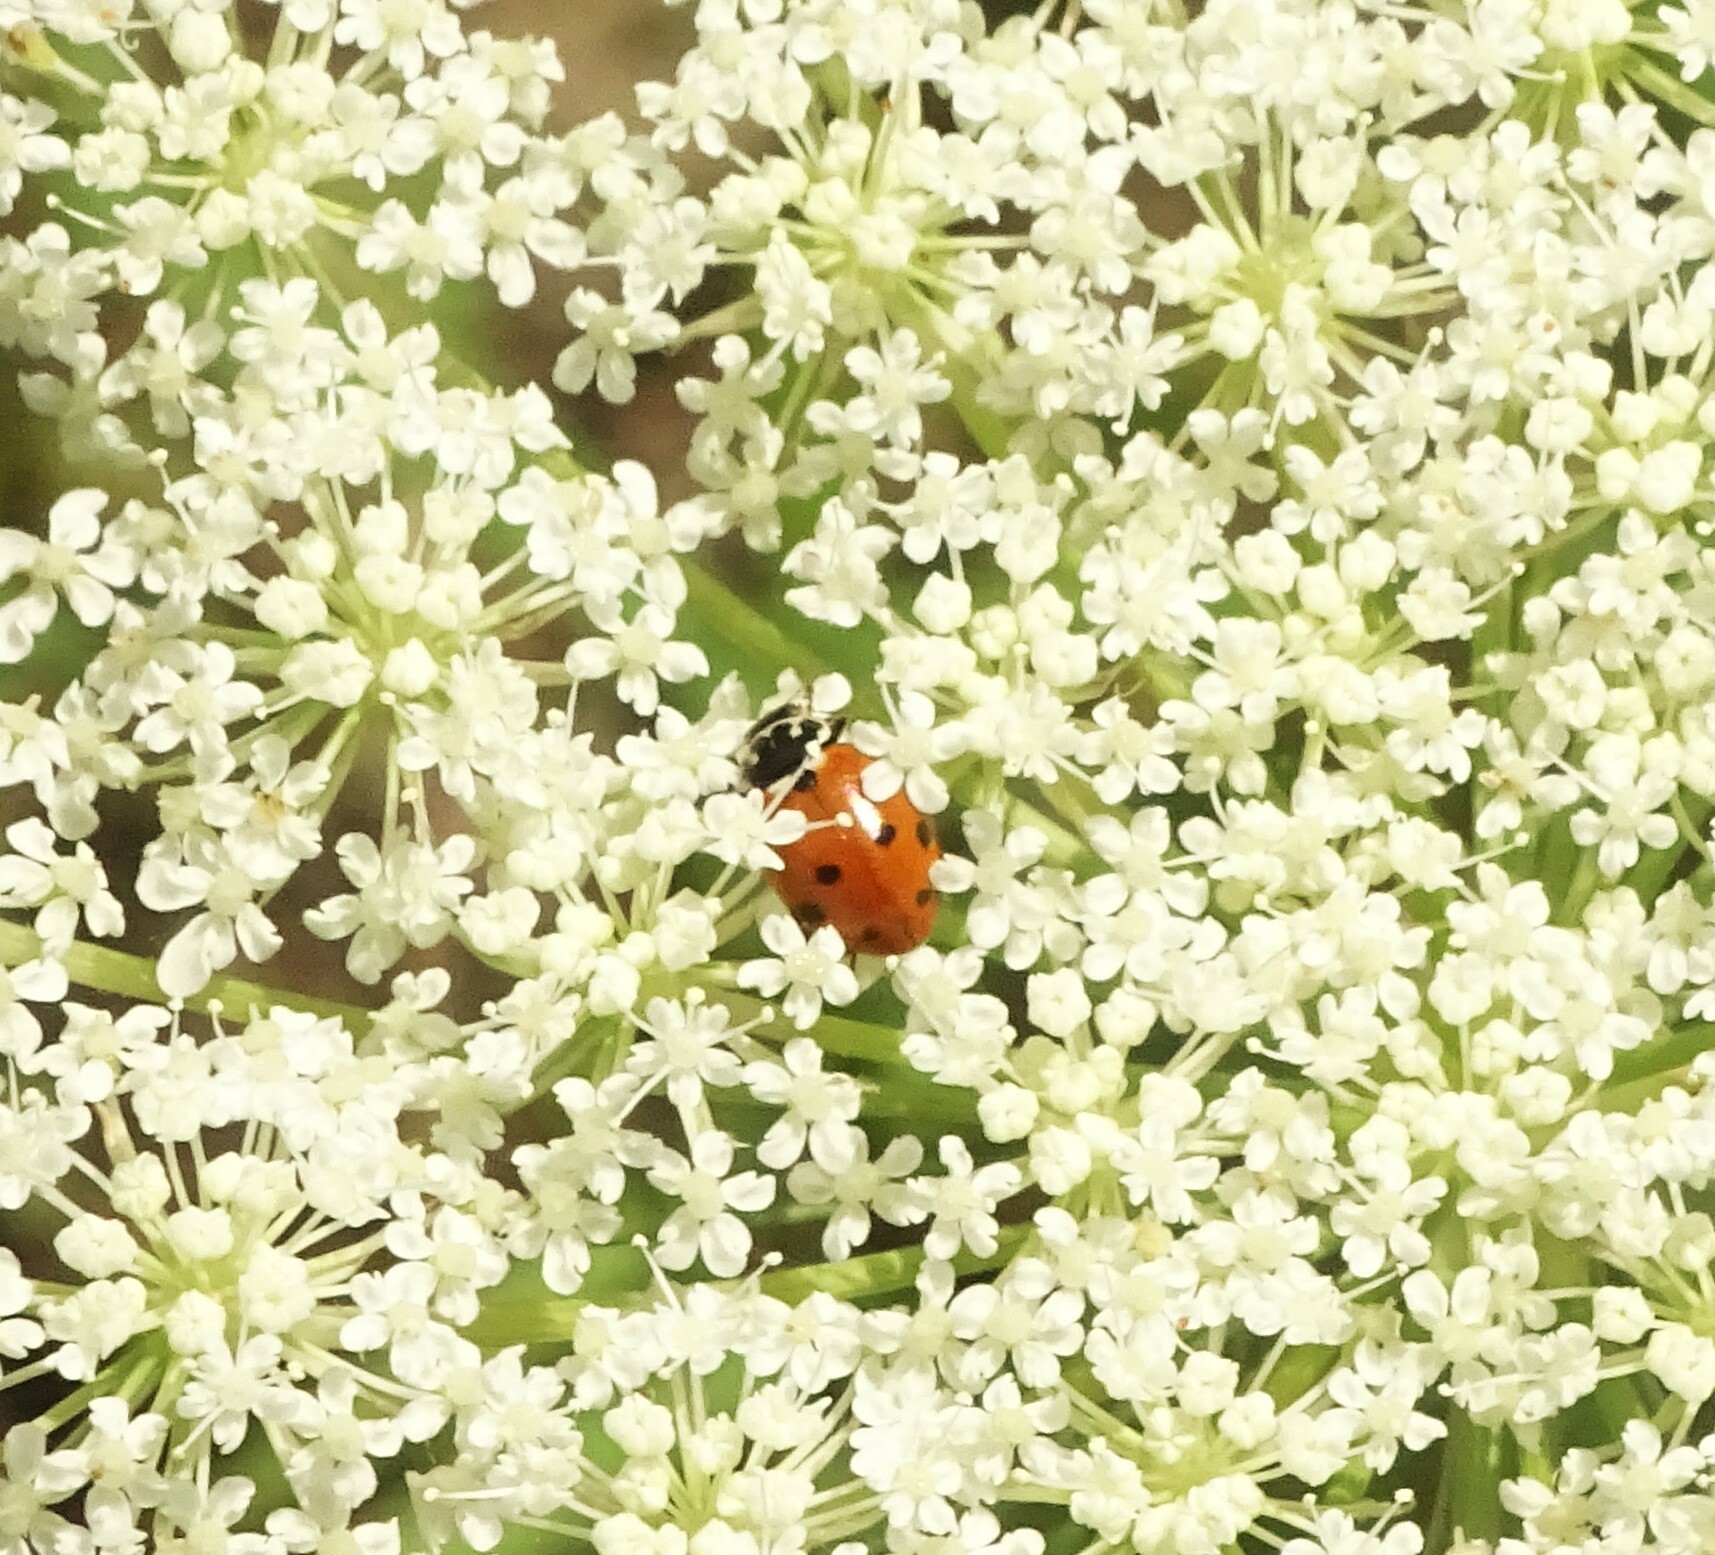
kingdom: Animalia
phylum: Arthropoda
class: Insecta
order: Coleoptera
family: Coccinellidae
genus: Hippodamia
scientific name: Hippodamia variegata
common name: Ladybird beetle
